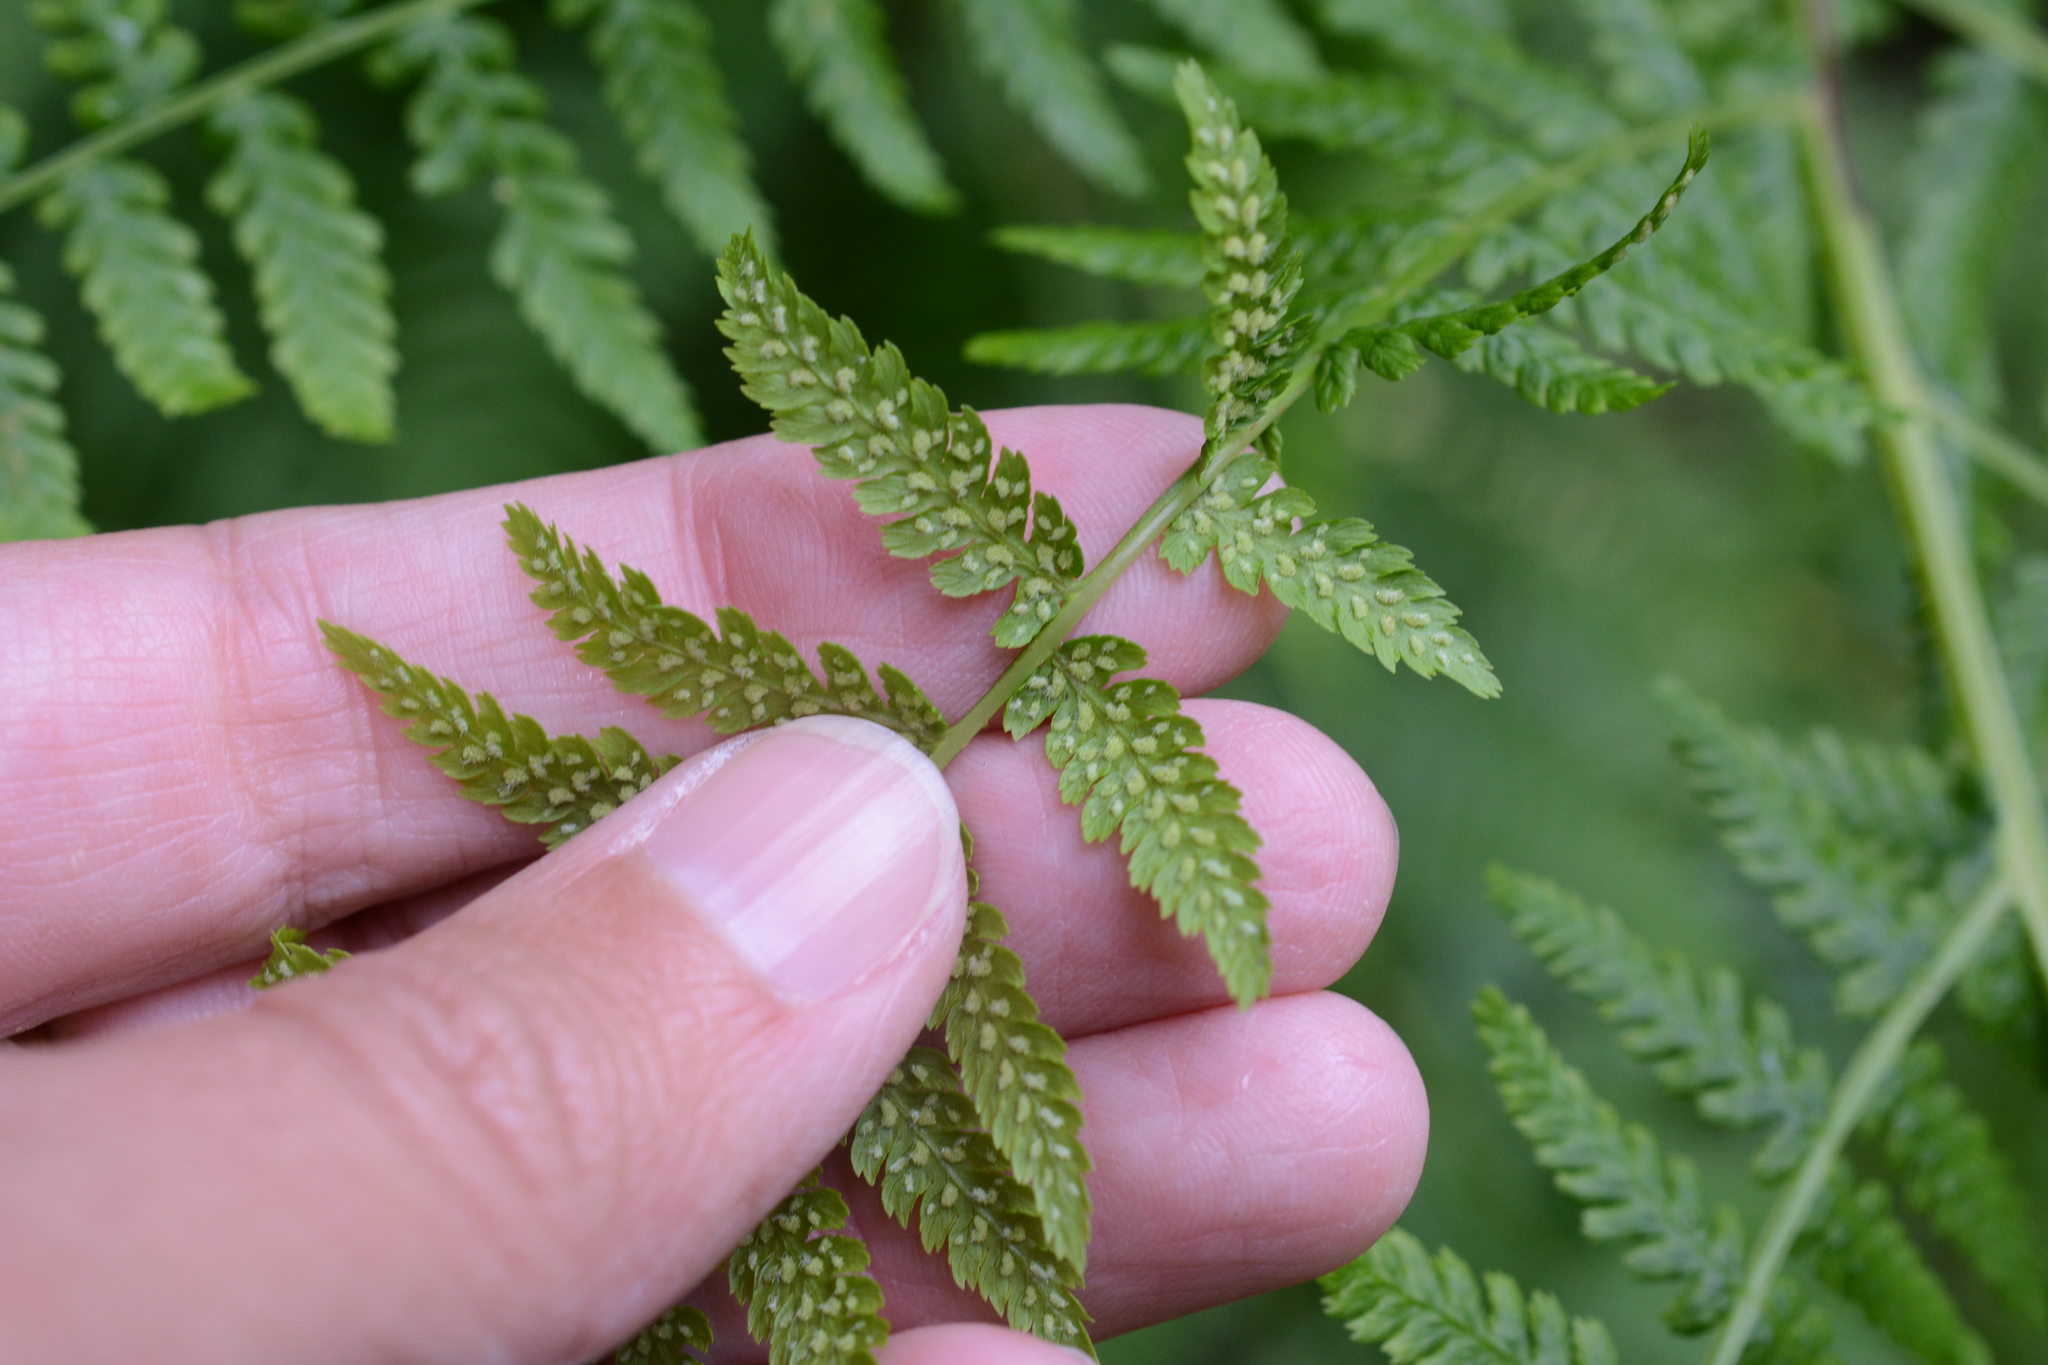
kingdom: Plantae
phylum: Tracheophyta
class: Polypodiopsida
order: Polypodiales
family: Athyriaceae
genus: Athyrium
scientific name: Athyrium filix-femina
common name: Lady fern
